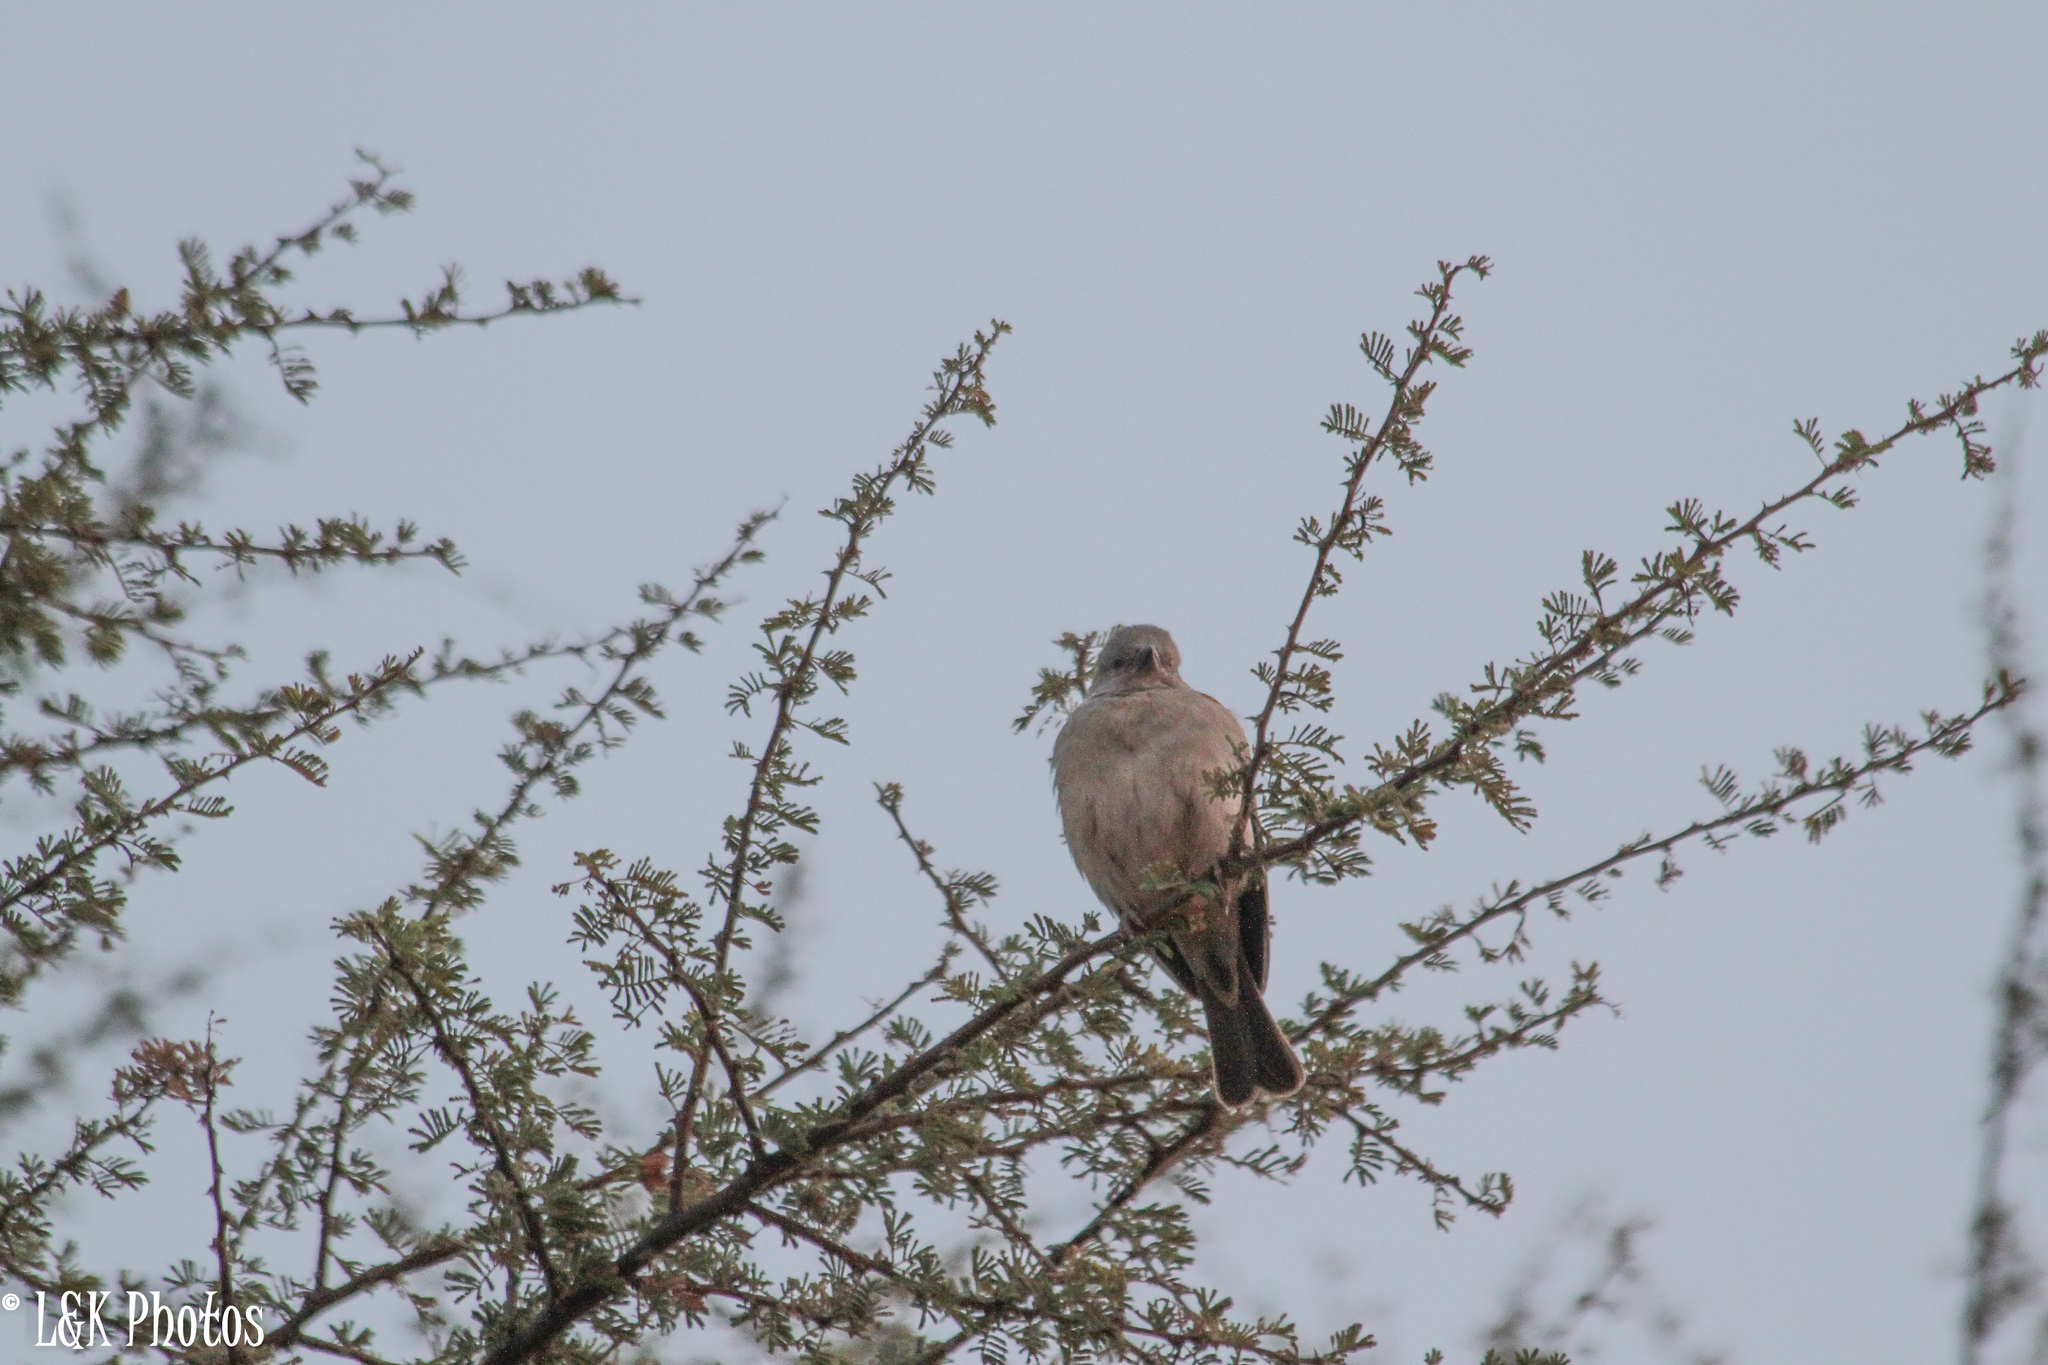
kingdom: Animalia
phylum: Chordata
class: Aves
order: Passeriformes
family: Passeridae
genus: Passer
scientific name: Passer diffusus
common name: Southern grey-headed sparrow
